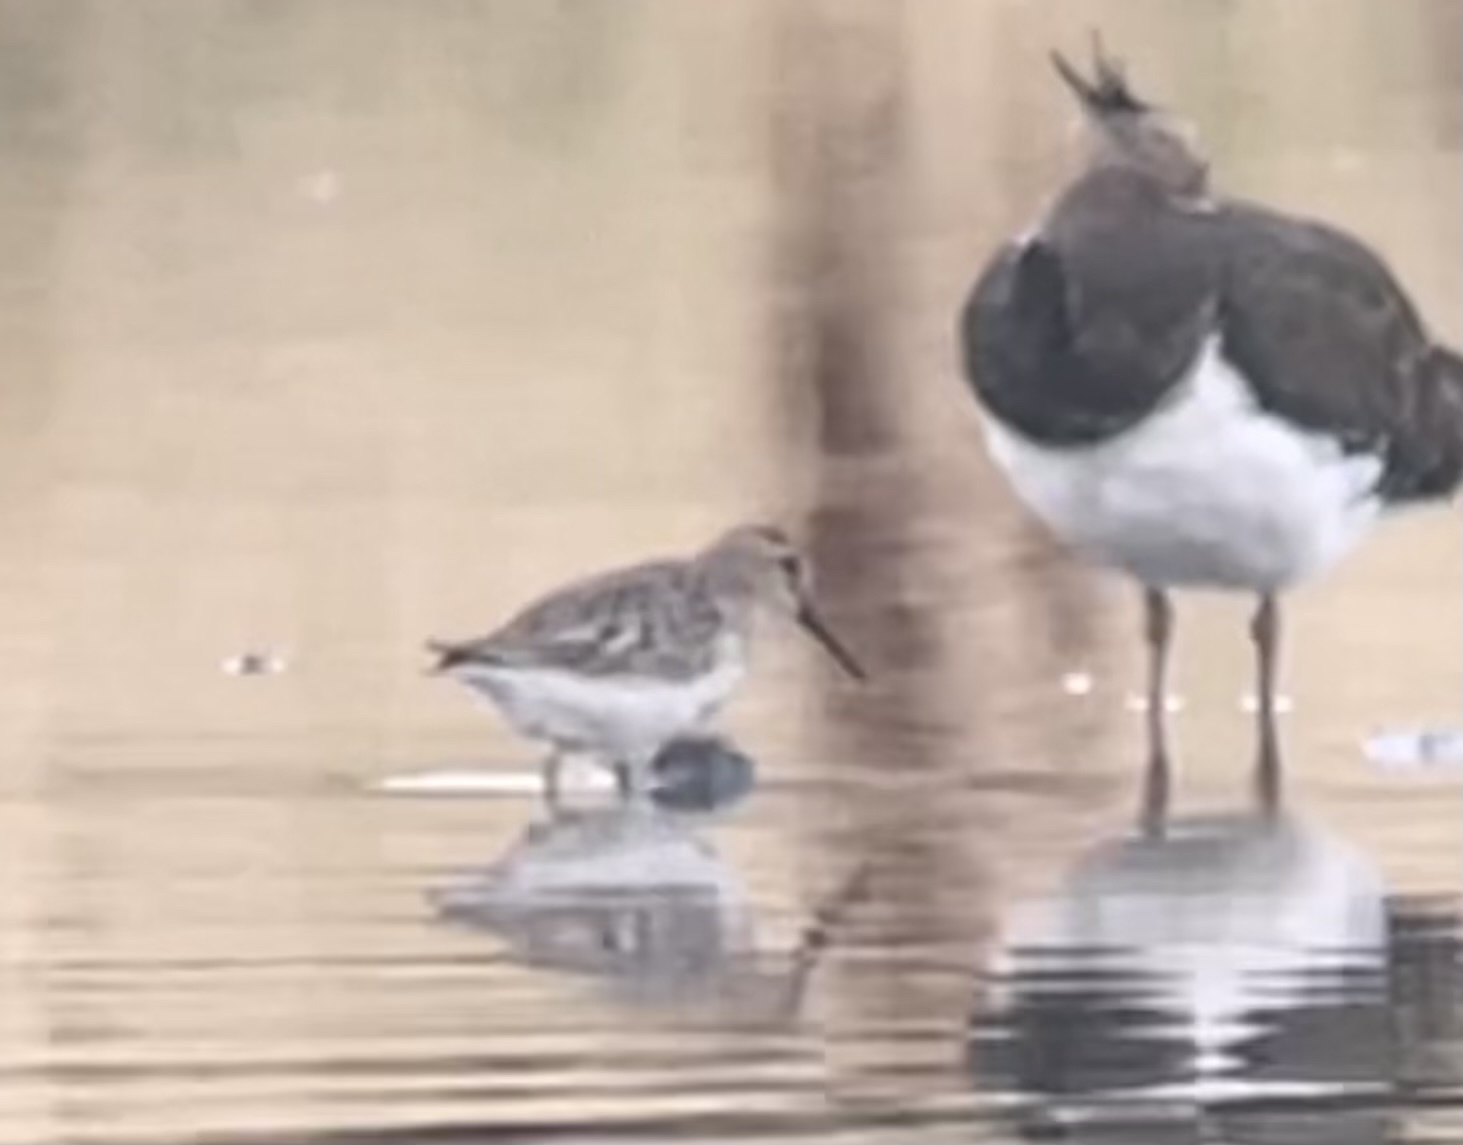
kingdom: Animalia
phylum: Chordata
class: Aves
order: Charadriiformes
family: Scolopacidae
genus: Calidris
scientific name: Calidris alpina
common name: Dunlin
